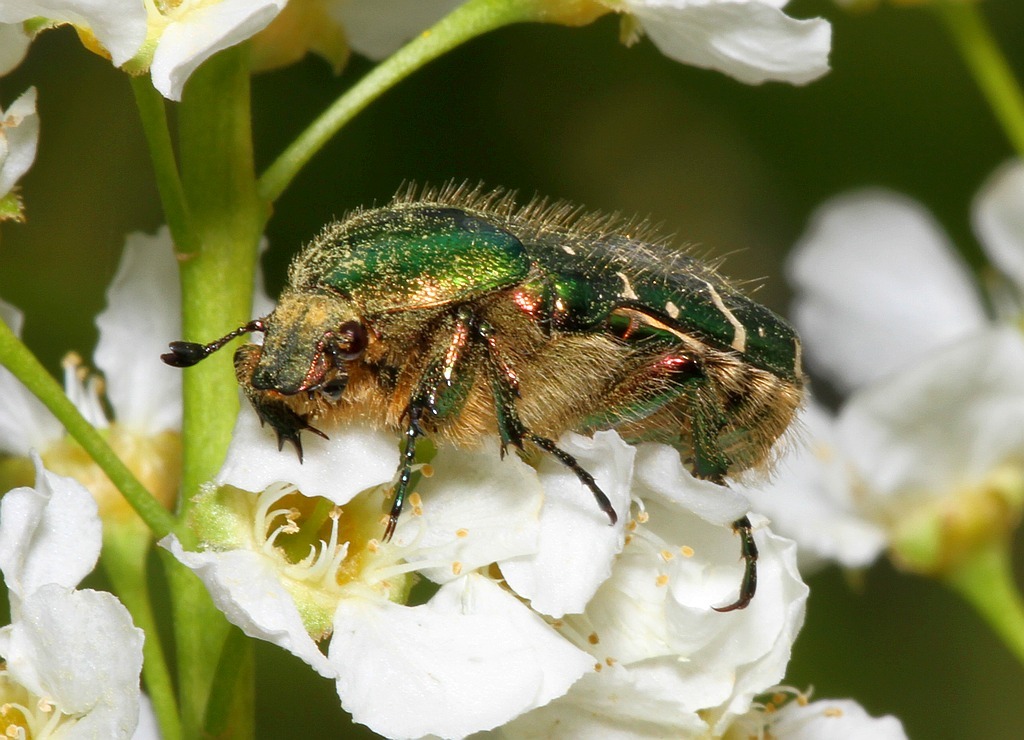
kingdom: Animalia
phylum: Arthropoda
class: Insecta
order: Coleoptera
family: Scarabaeidae
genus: Cetonia
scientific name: Cetonia aurata
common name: Rose chafer
